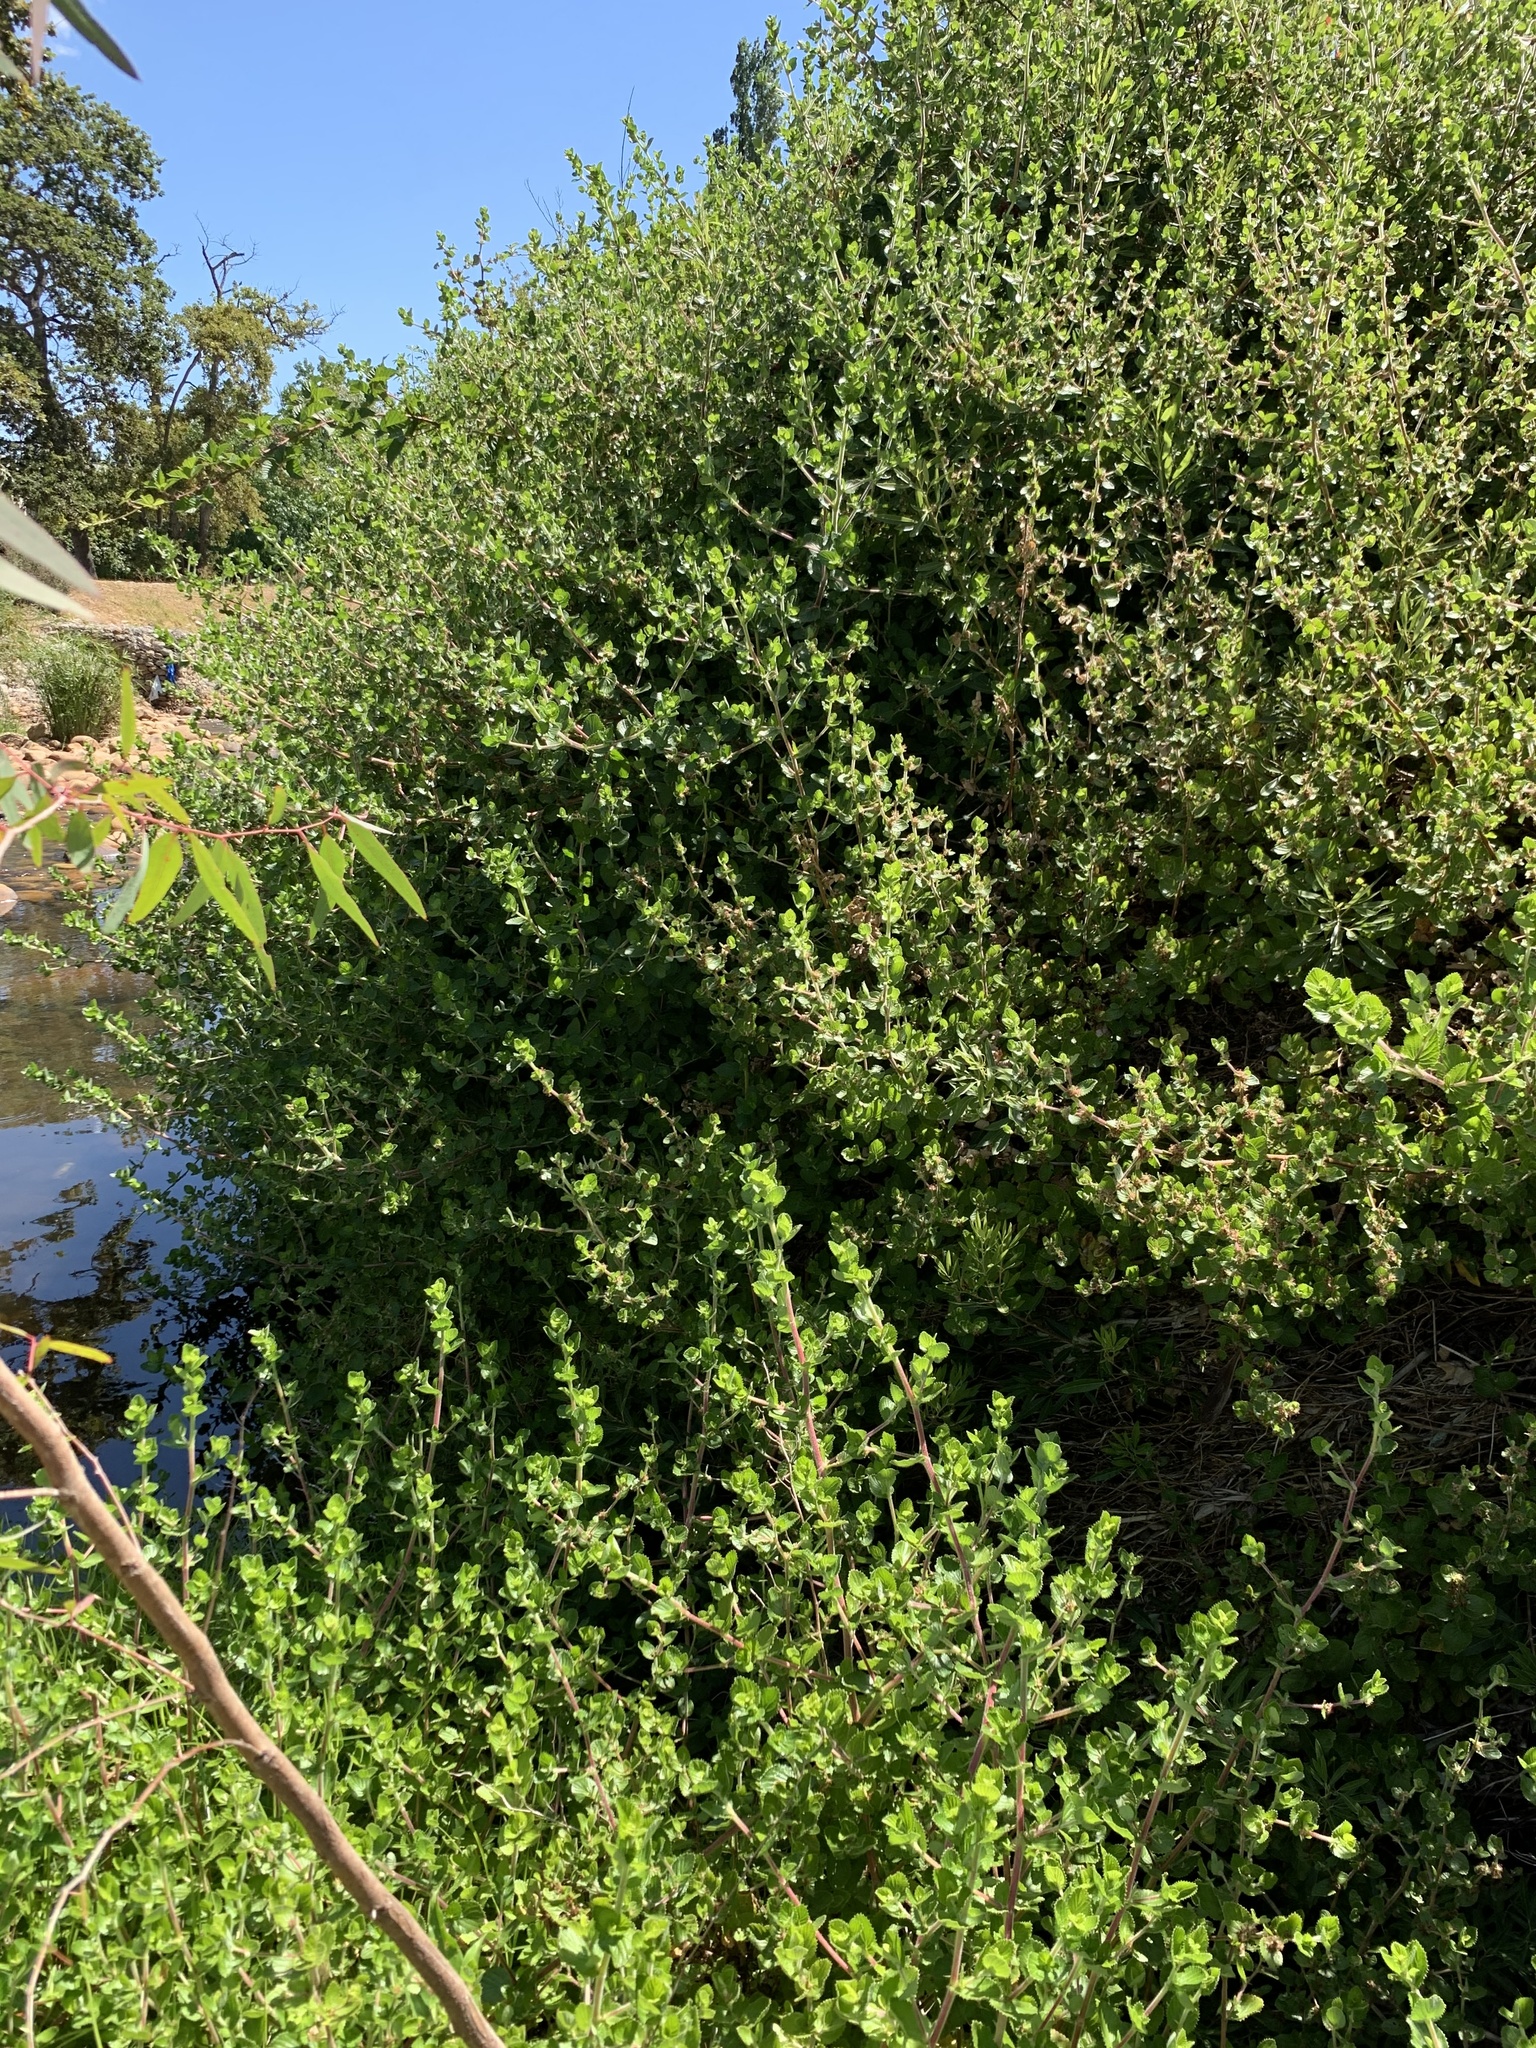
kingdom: Plantae
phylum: Tracheophyta
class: Magnoliopsida
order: Rosales
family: Rosaceae
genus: Cliffortia
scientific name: Cliffortia odorata
